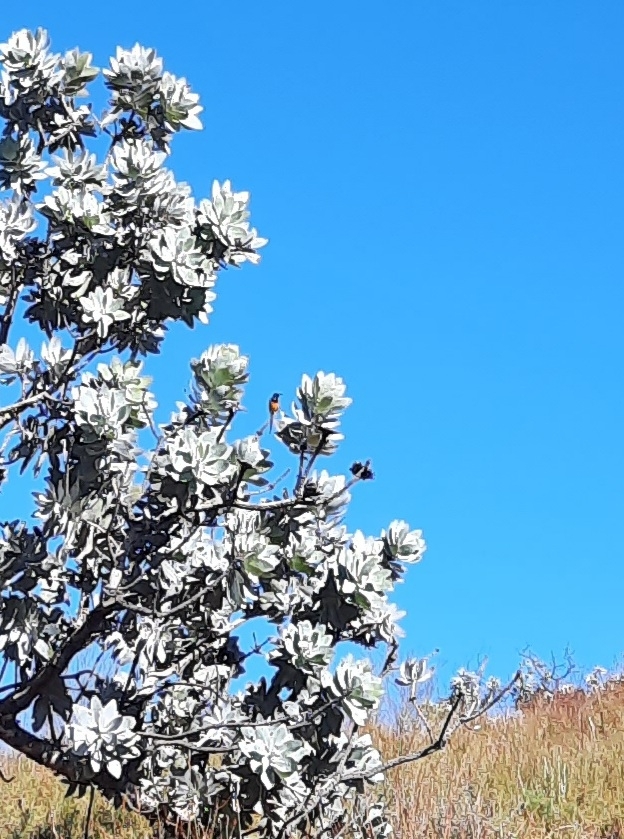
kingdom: Animalia
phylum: Chordata
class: Aves
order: Passeriformes
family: Nectariniidae
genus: Anthobaphes
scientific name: Anthobaphes violacea
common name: Orange-breasted sunbird
